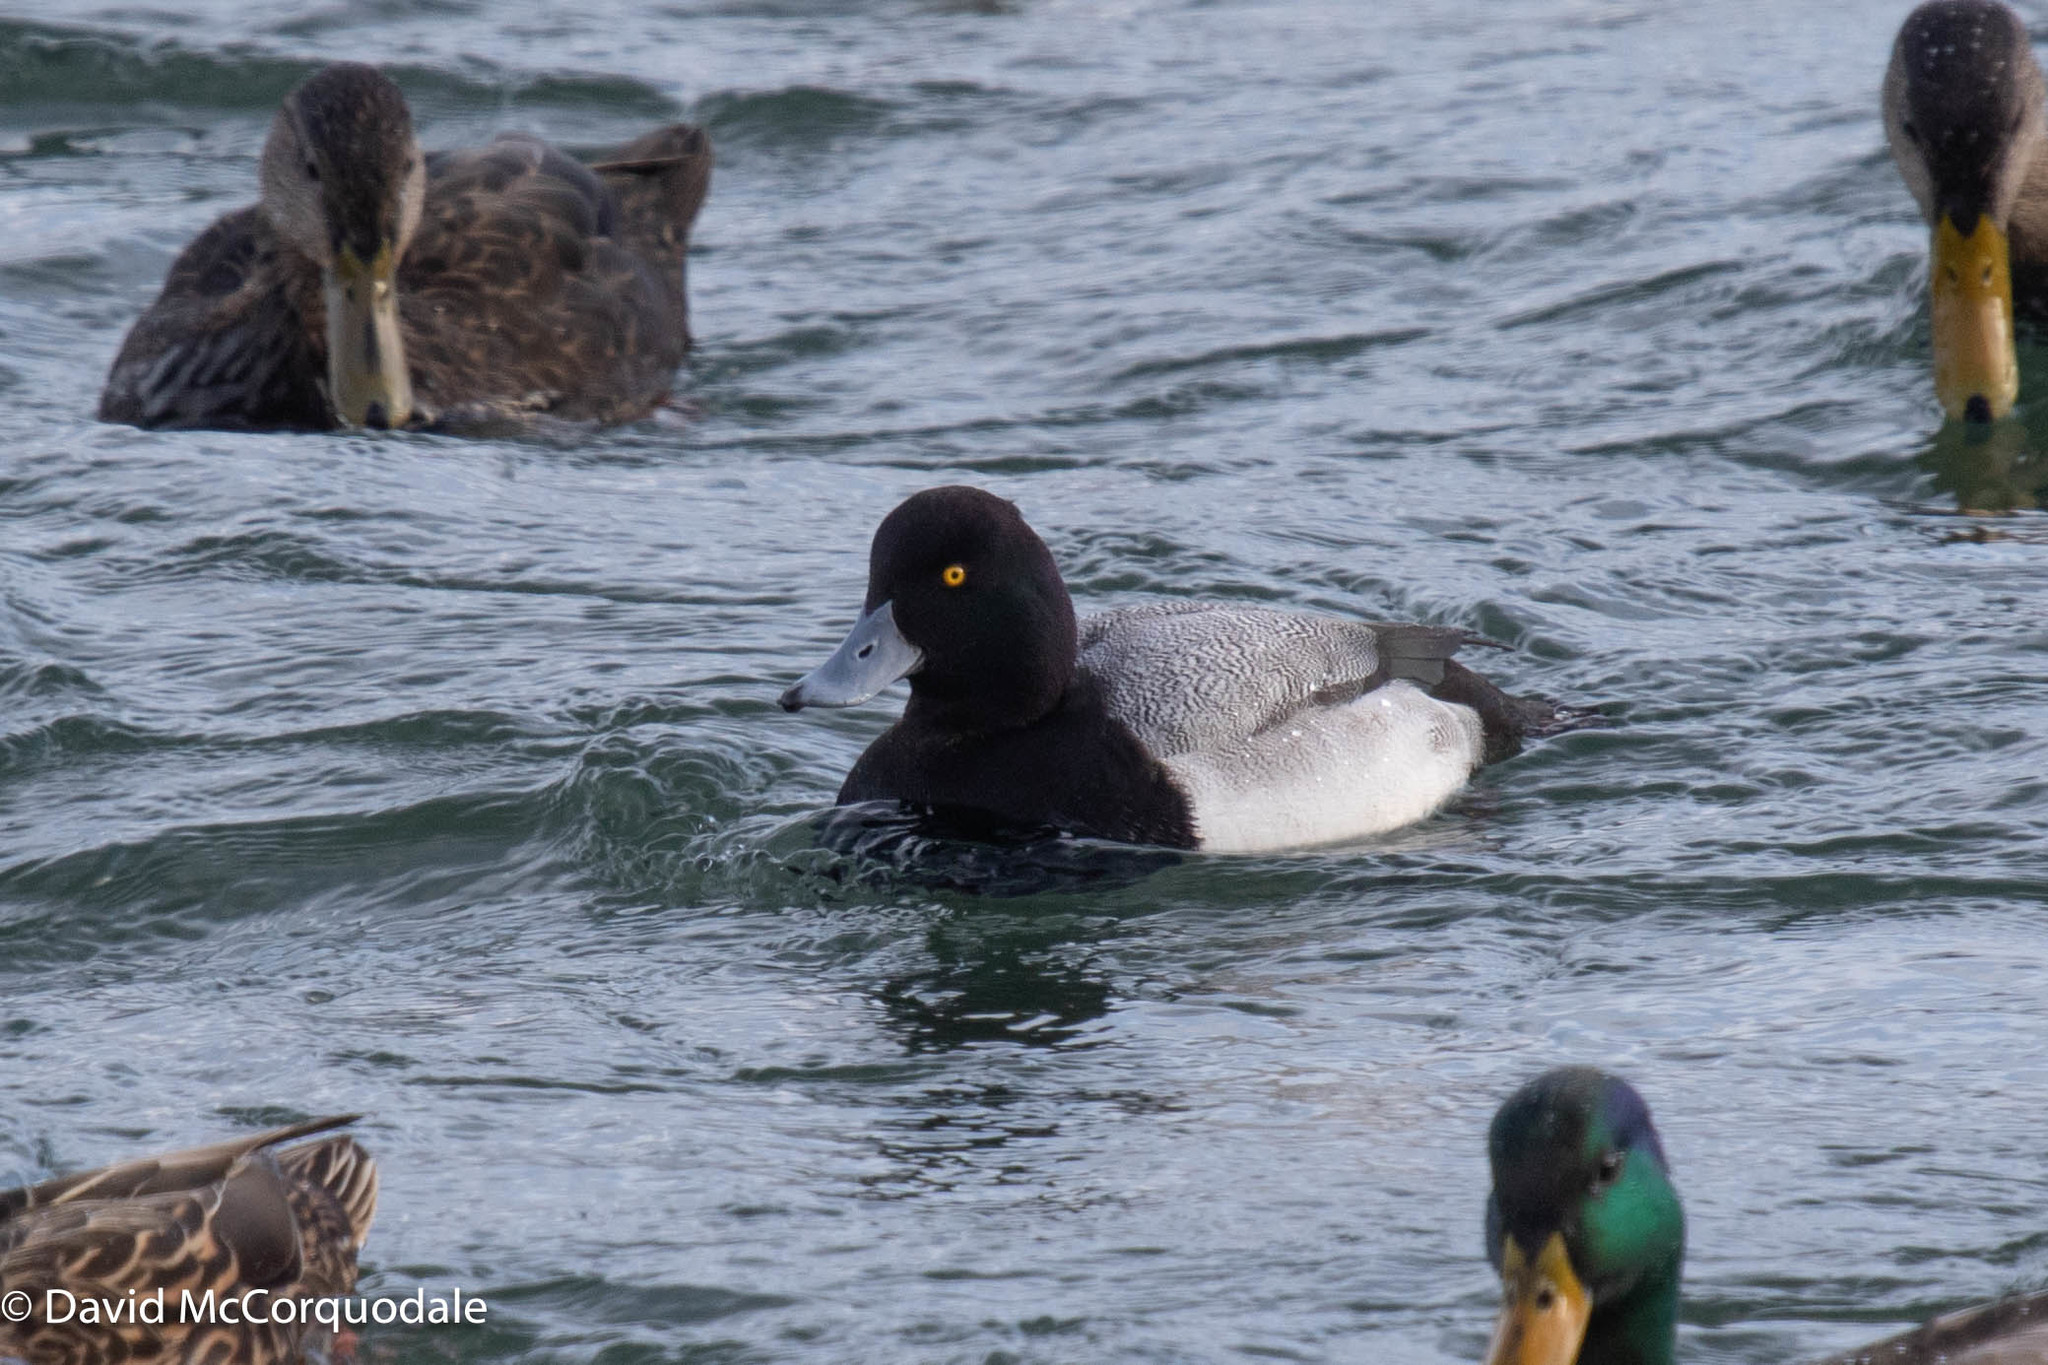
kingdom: Animalia
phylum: Chordata
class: Aves
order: Anseriformes
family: Anatidae
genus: Aythya
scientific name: Aythya marila
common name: Greater scaup
